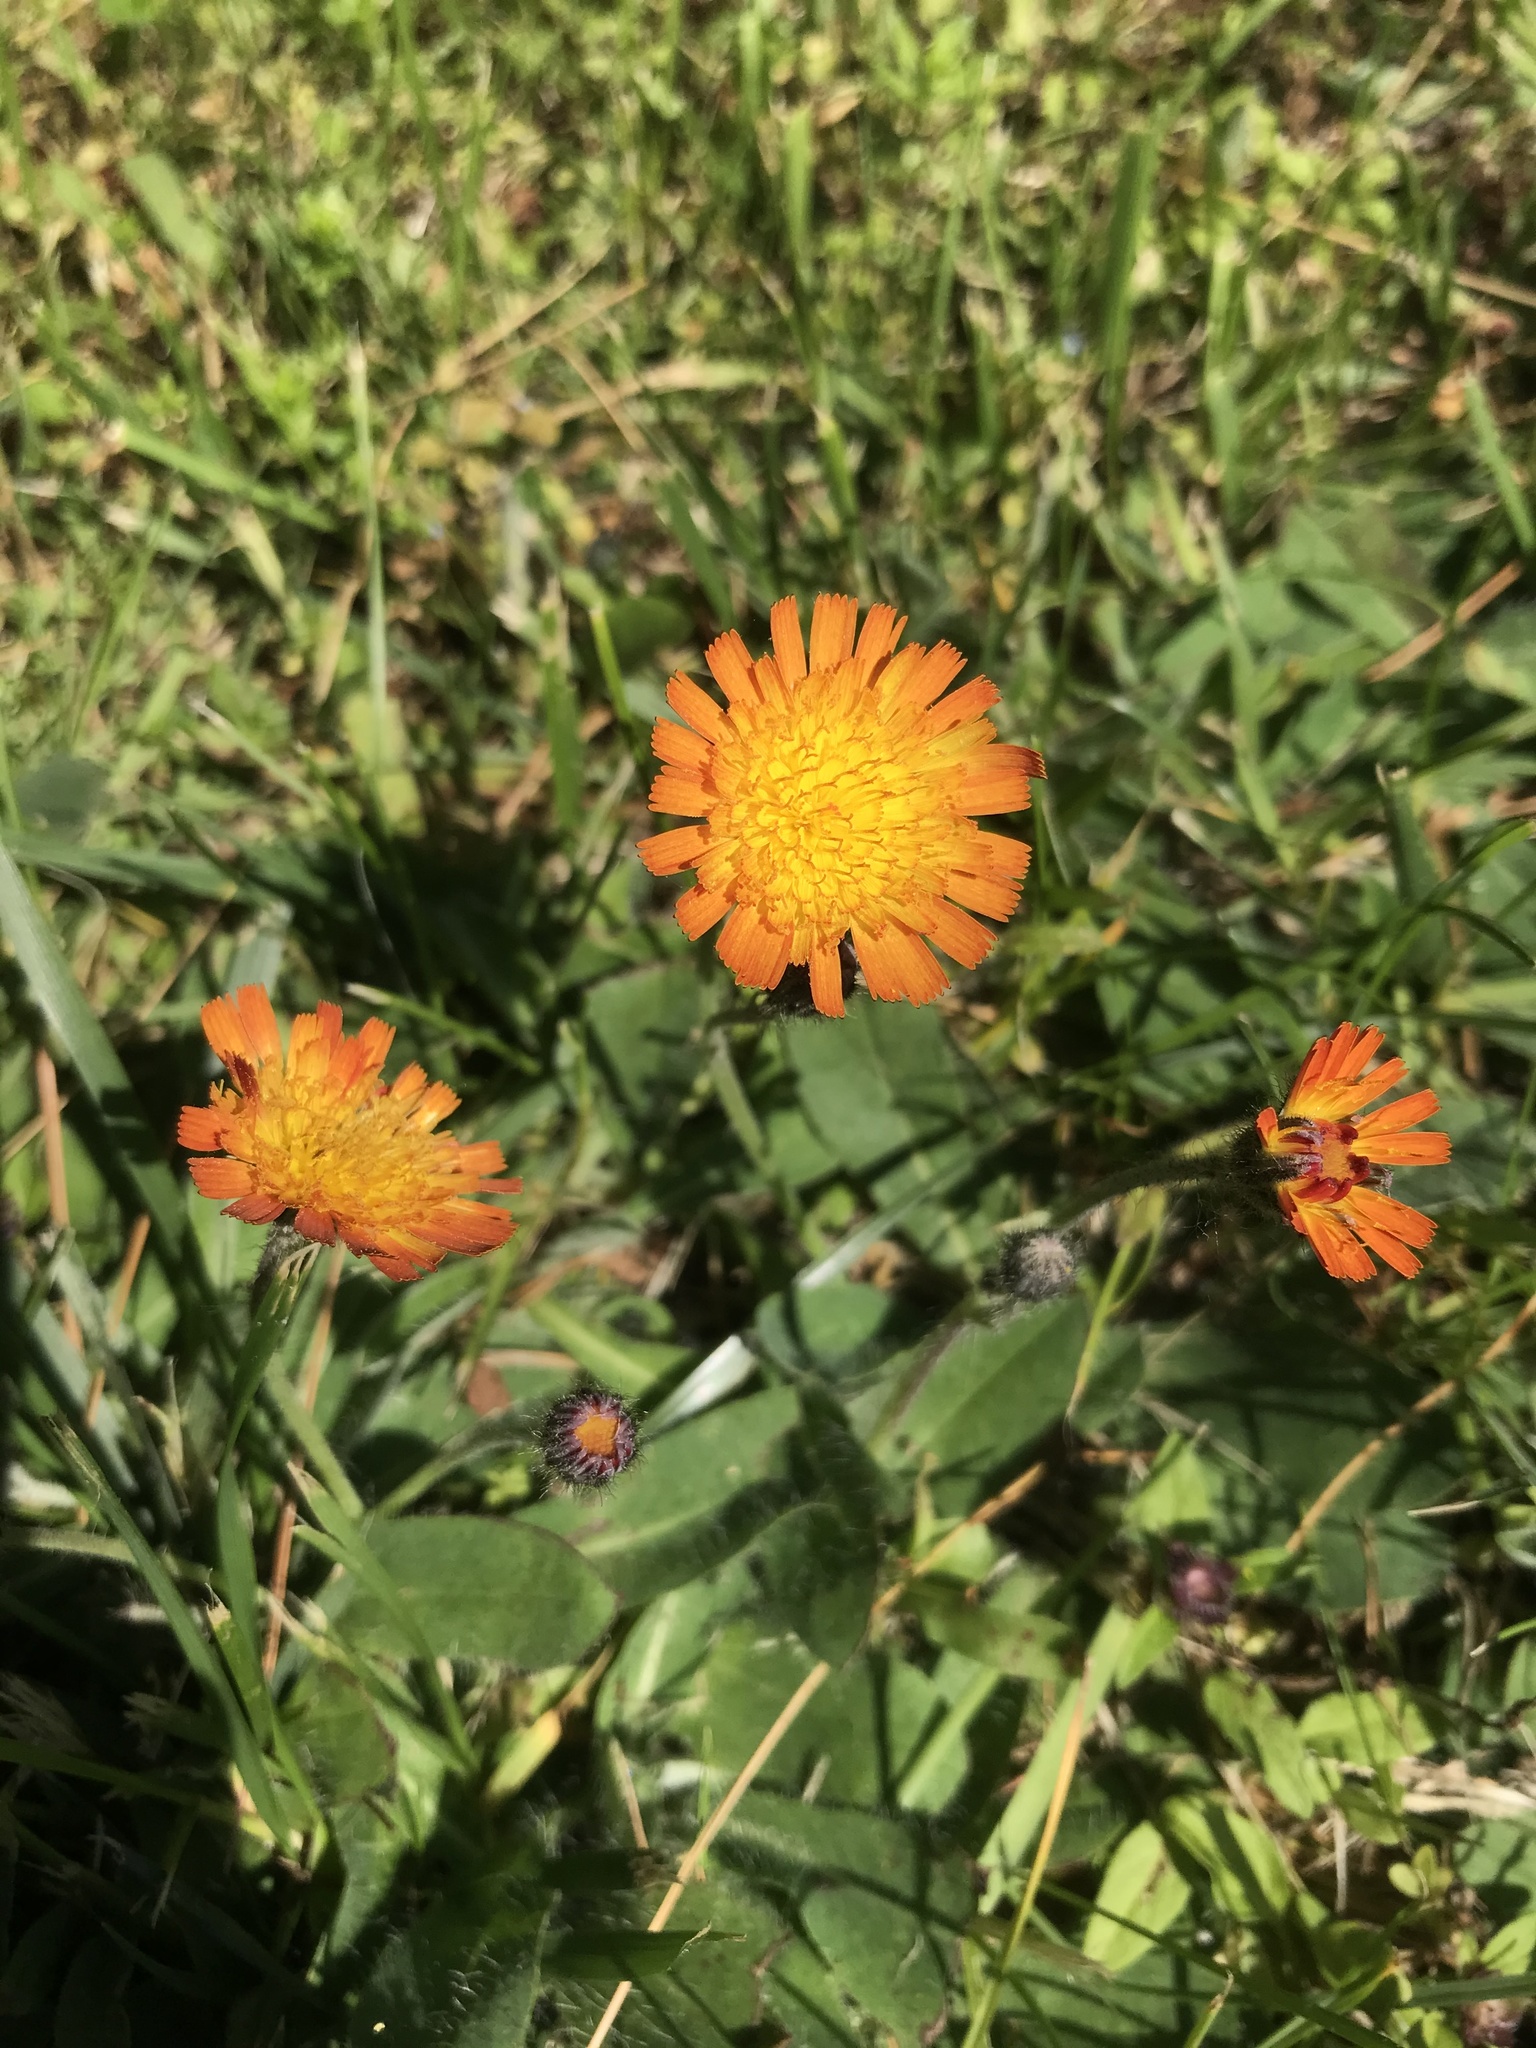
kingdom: Plantae
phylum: Tracheophyta
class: Magnoliopsida
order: Asterales
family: Asteraceae
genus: Pilosella
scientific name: Pilosella aurantiaca
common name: Fox-and-cubs
